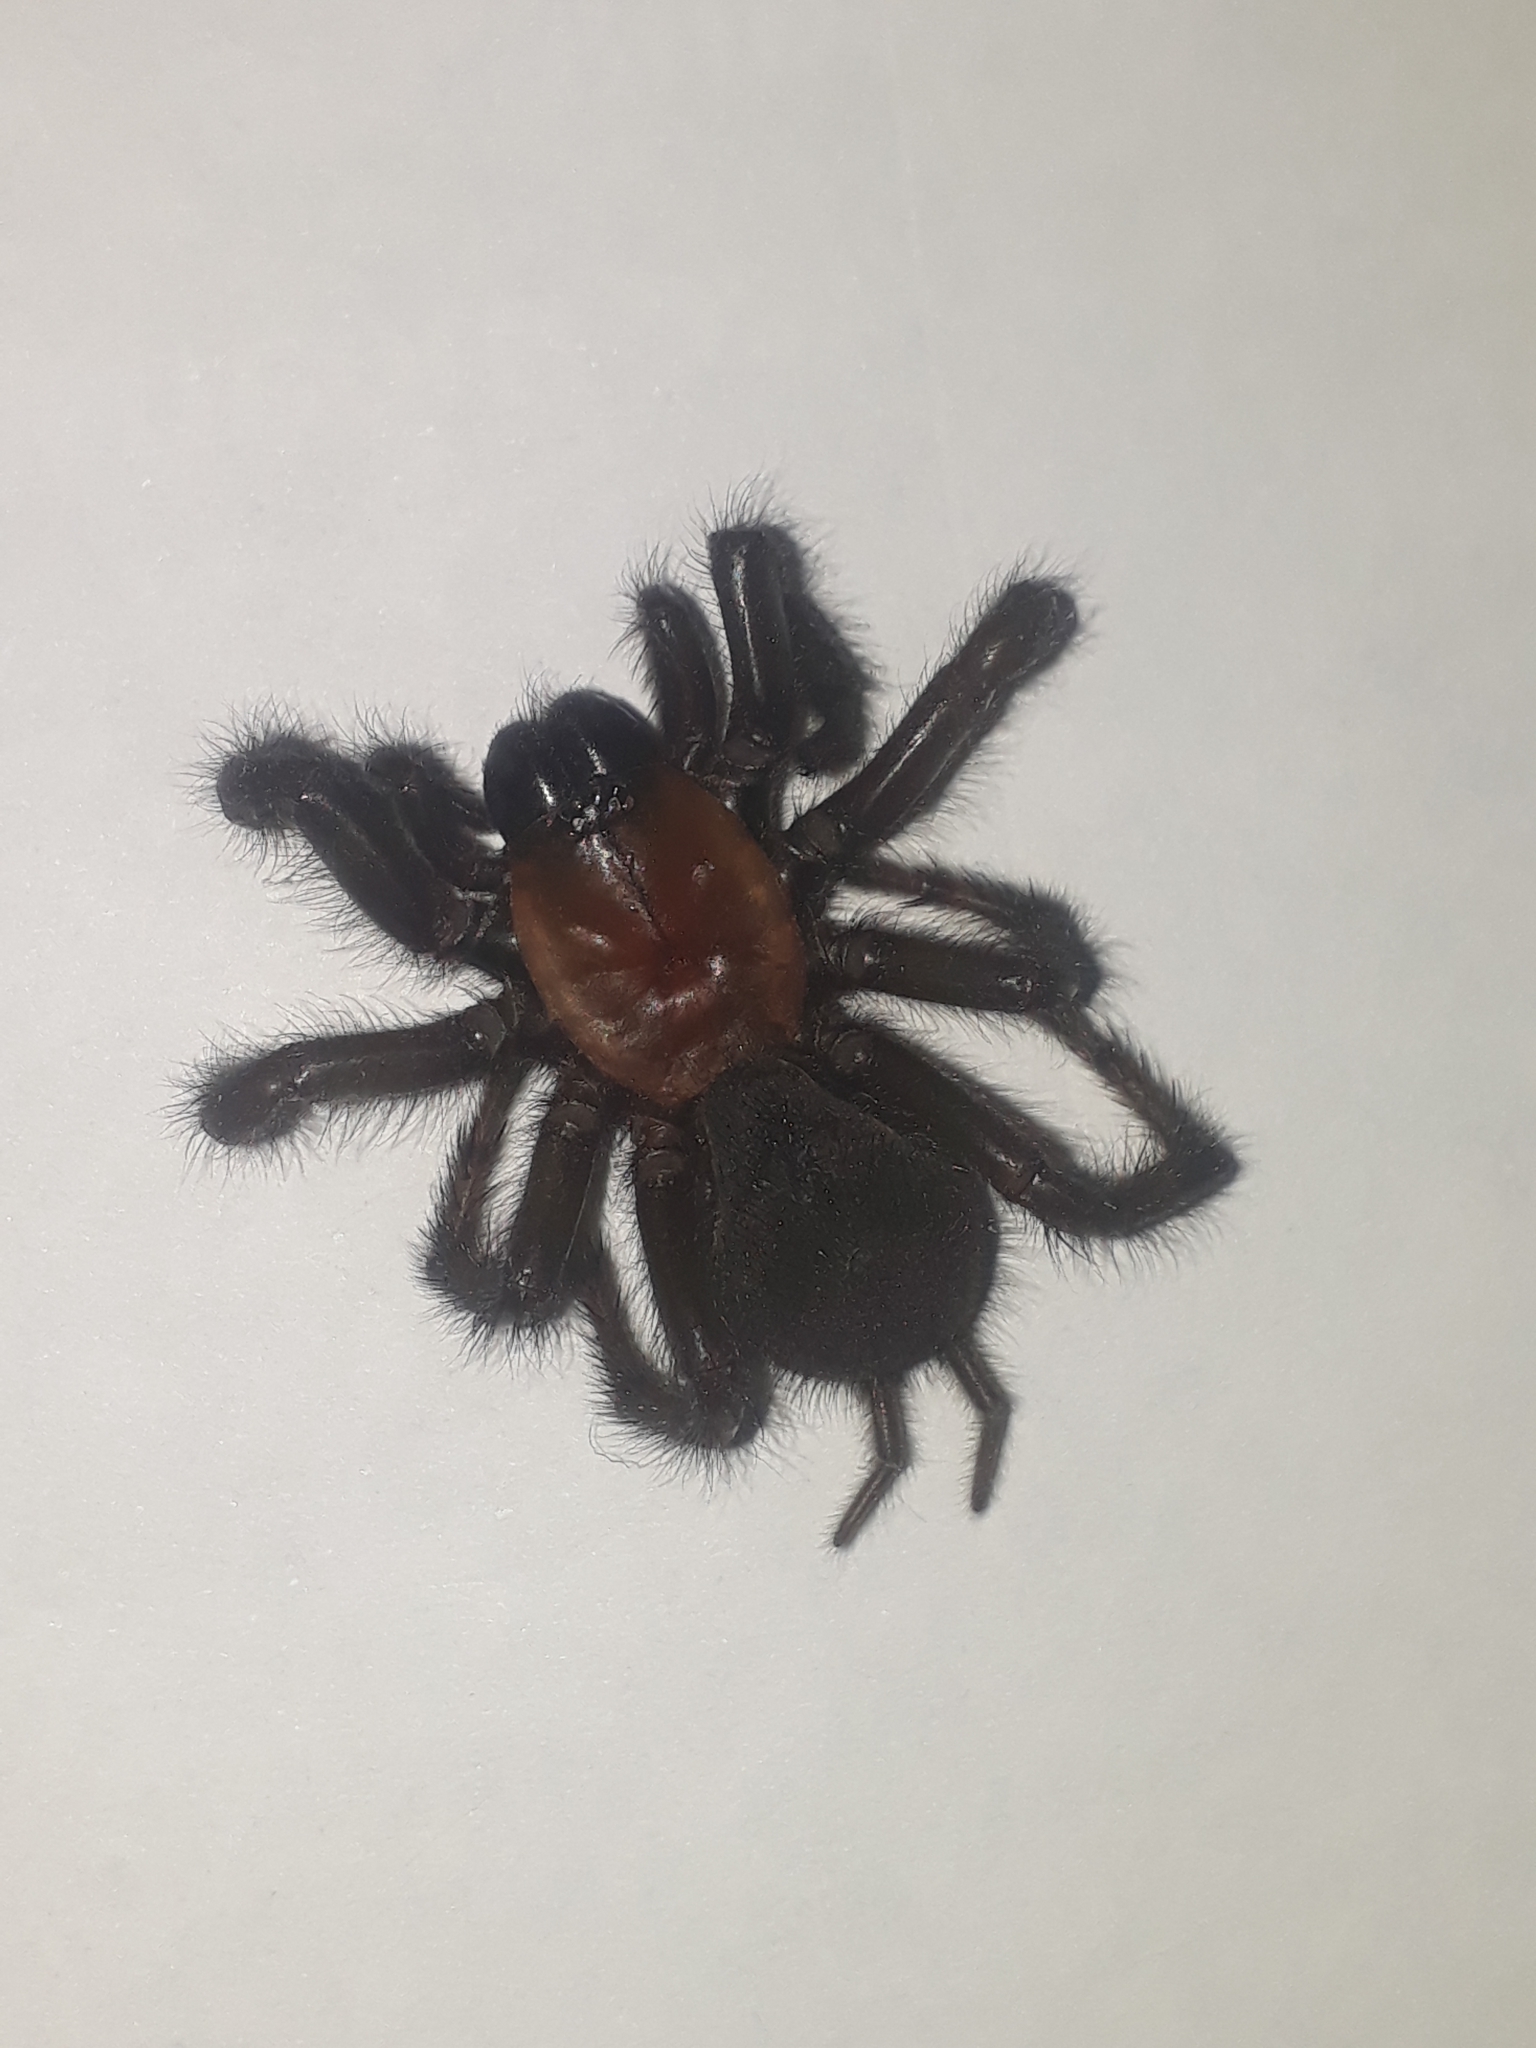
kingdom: Animalia
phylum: Arthropoda
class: Arachnida
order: Araneae
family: Porrhothelidae
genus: Porrhothele
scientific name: Porrhothele antipodiana
